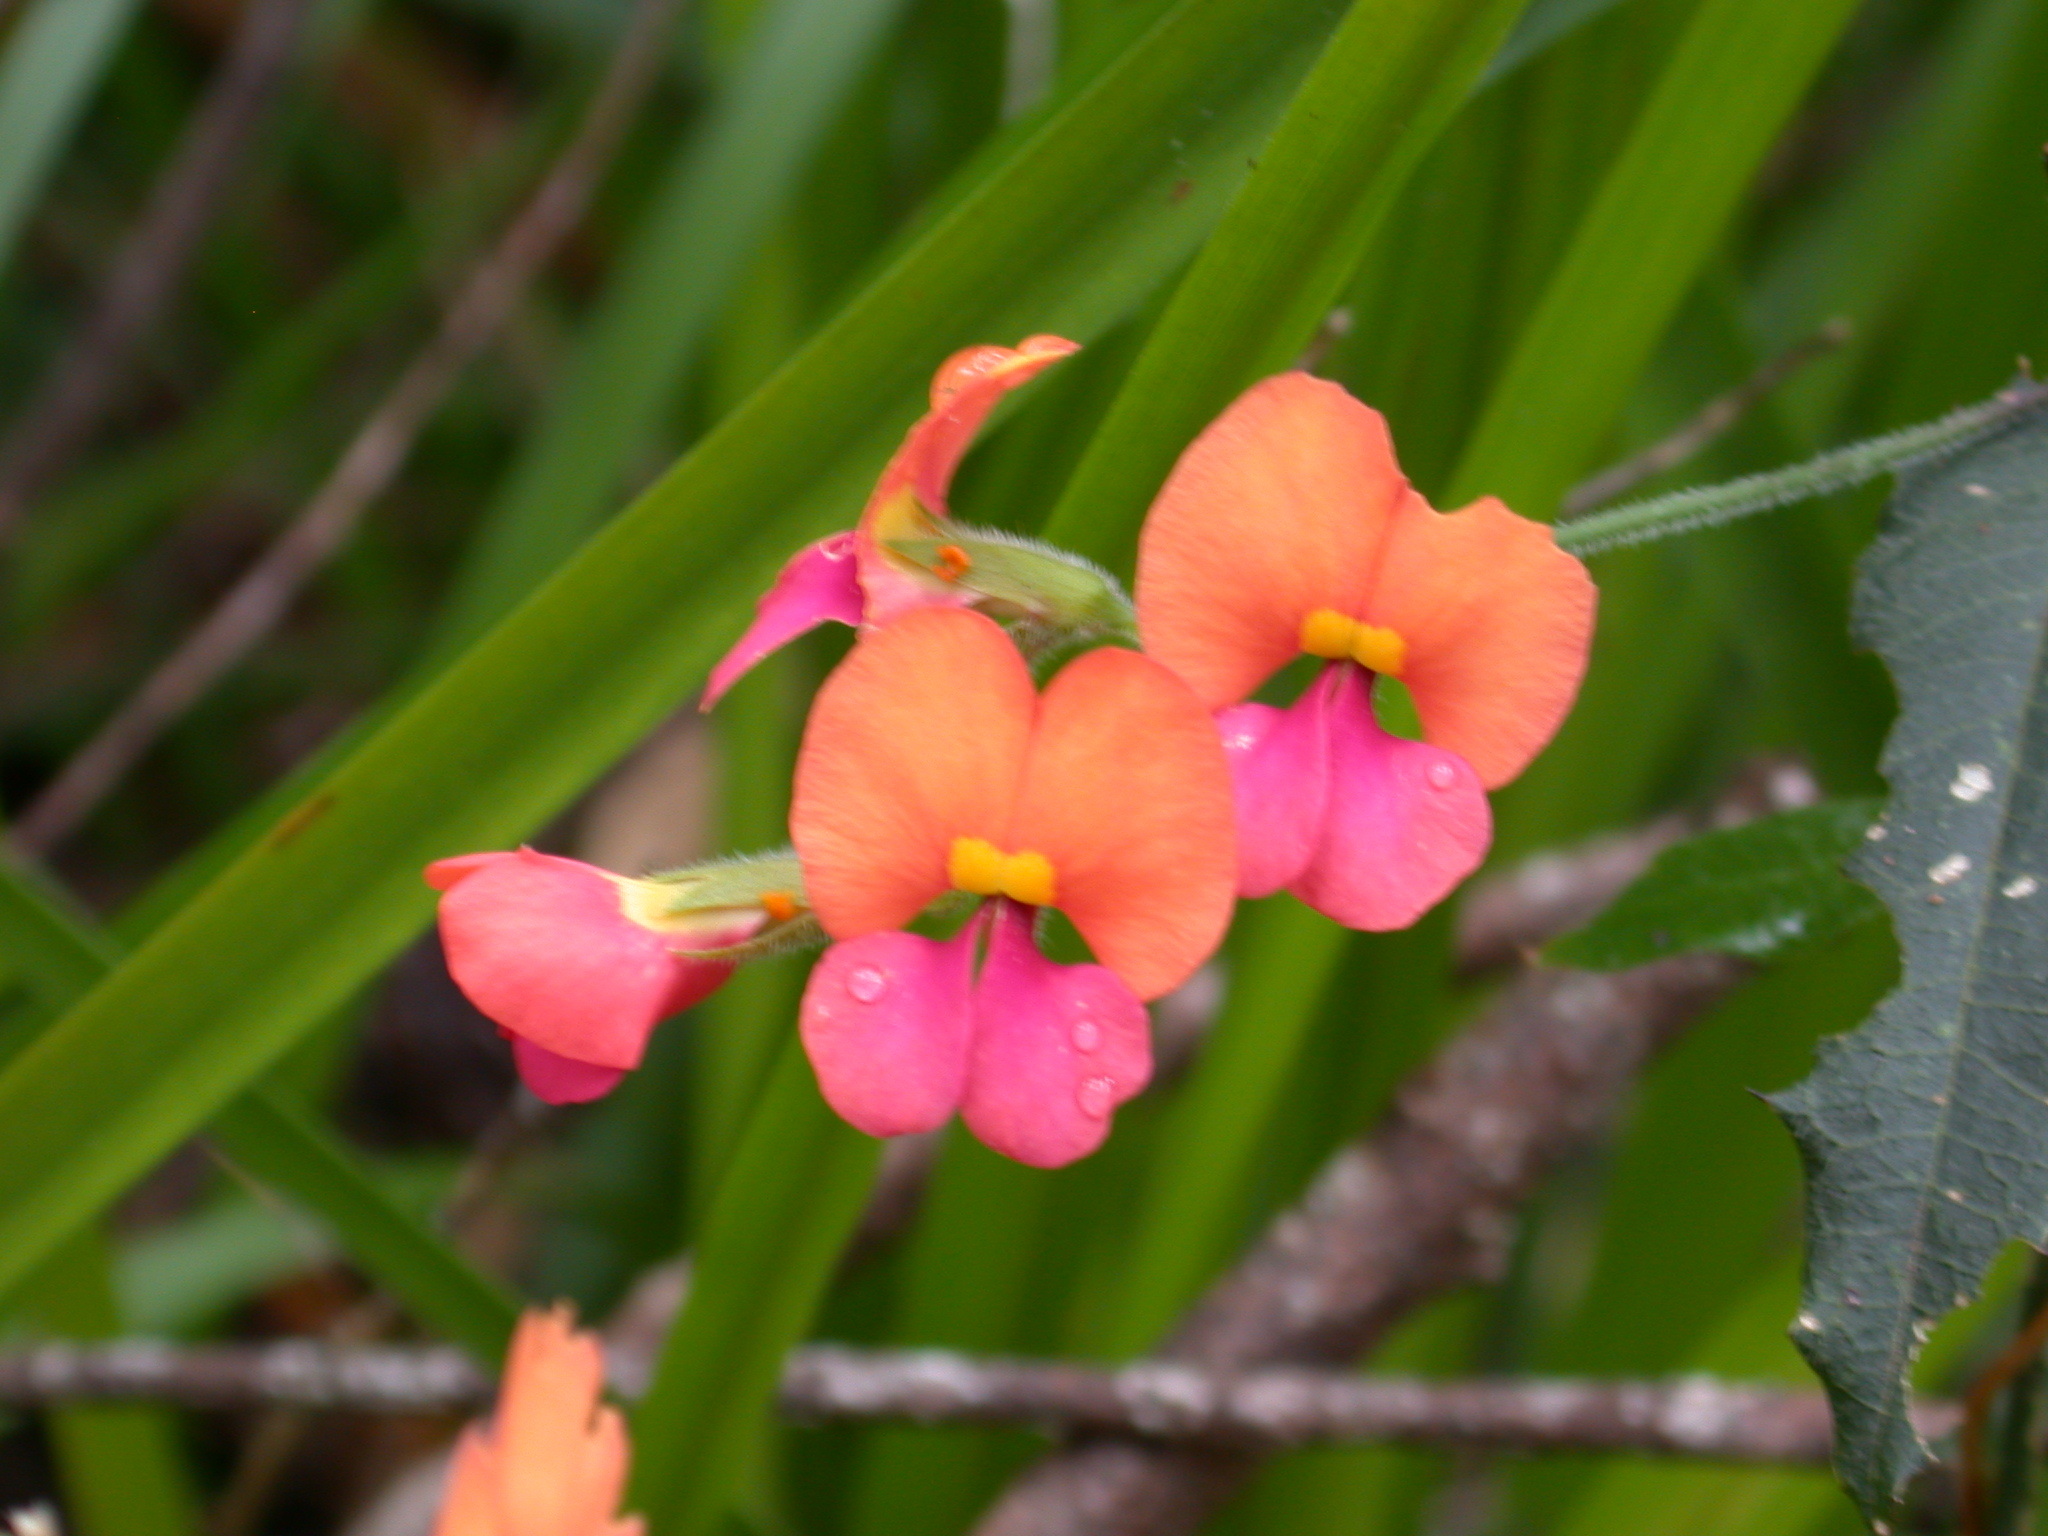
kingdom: Plantae
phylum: Tracheophyta
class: Magnoliopsida
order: Fabales
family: Fabaceae
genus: Chorizema
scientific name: Chorizema retrorsum
